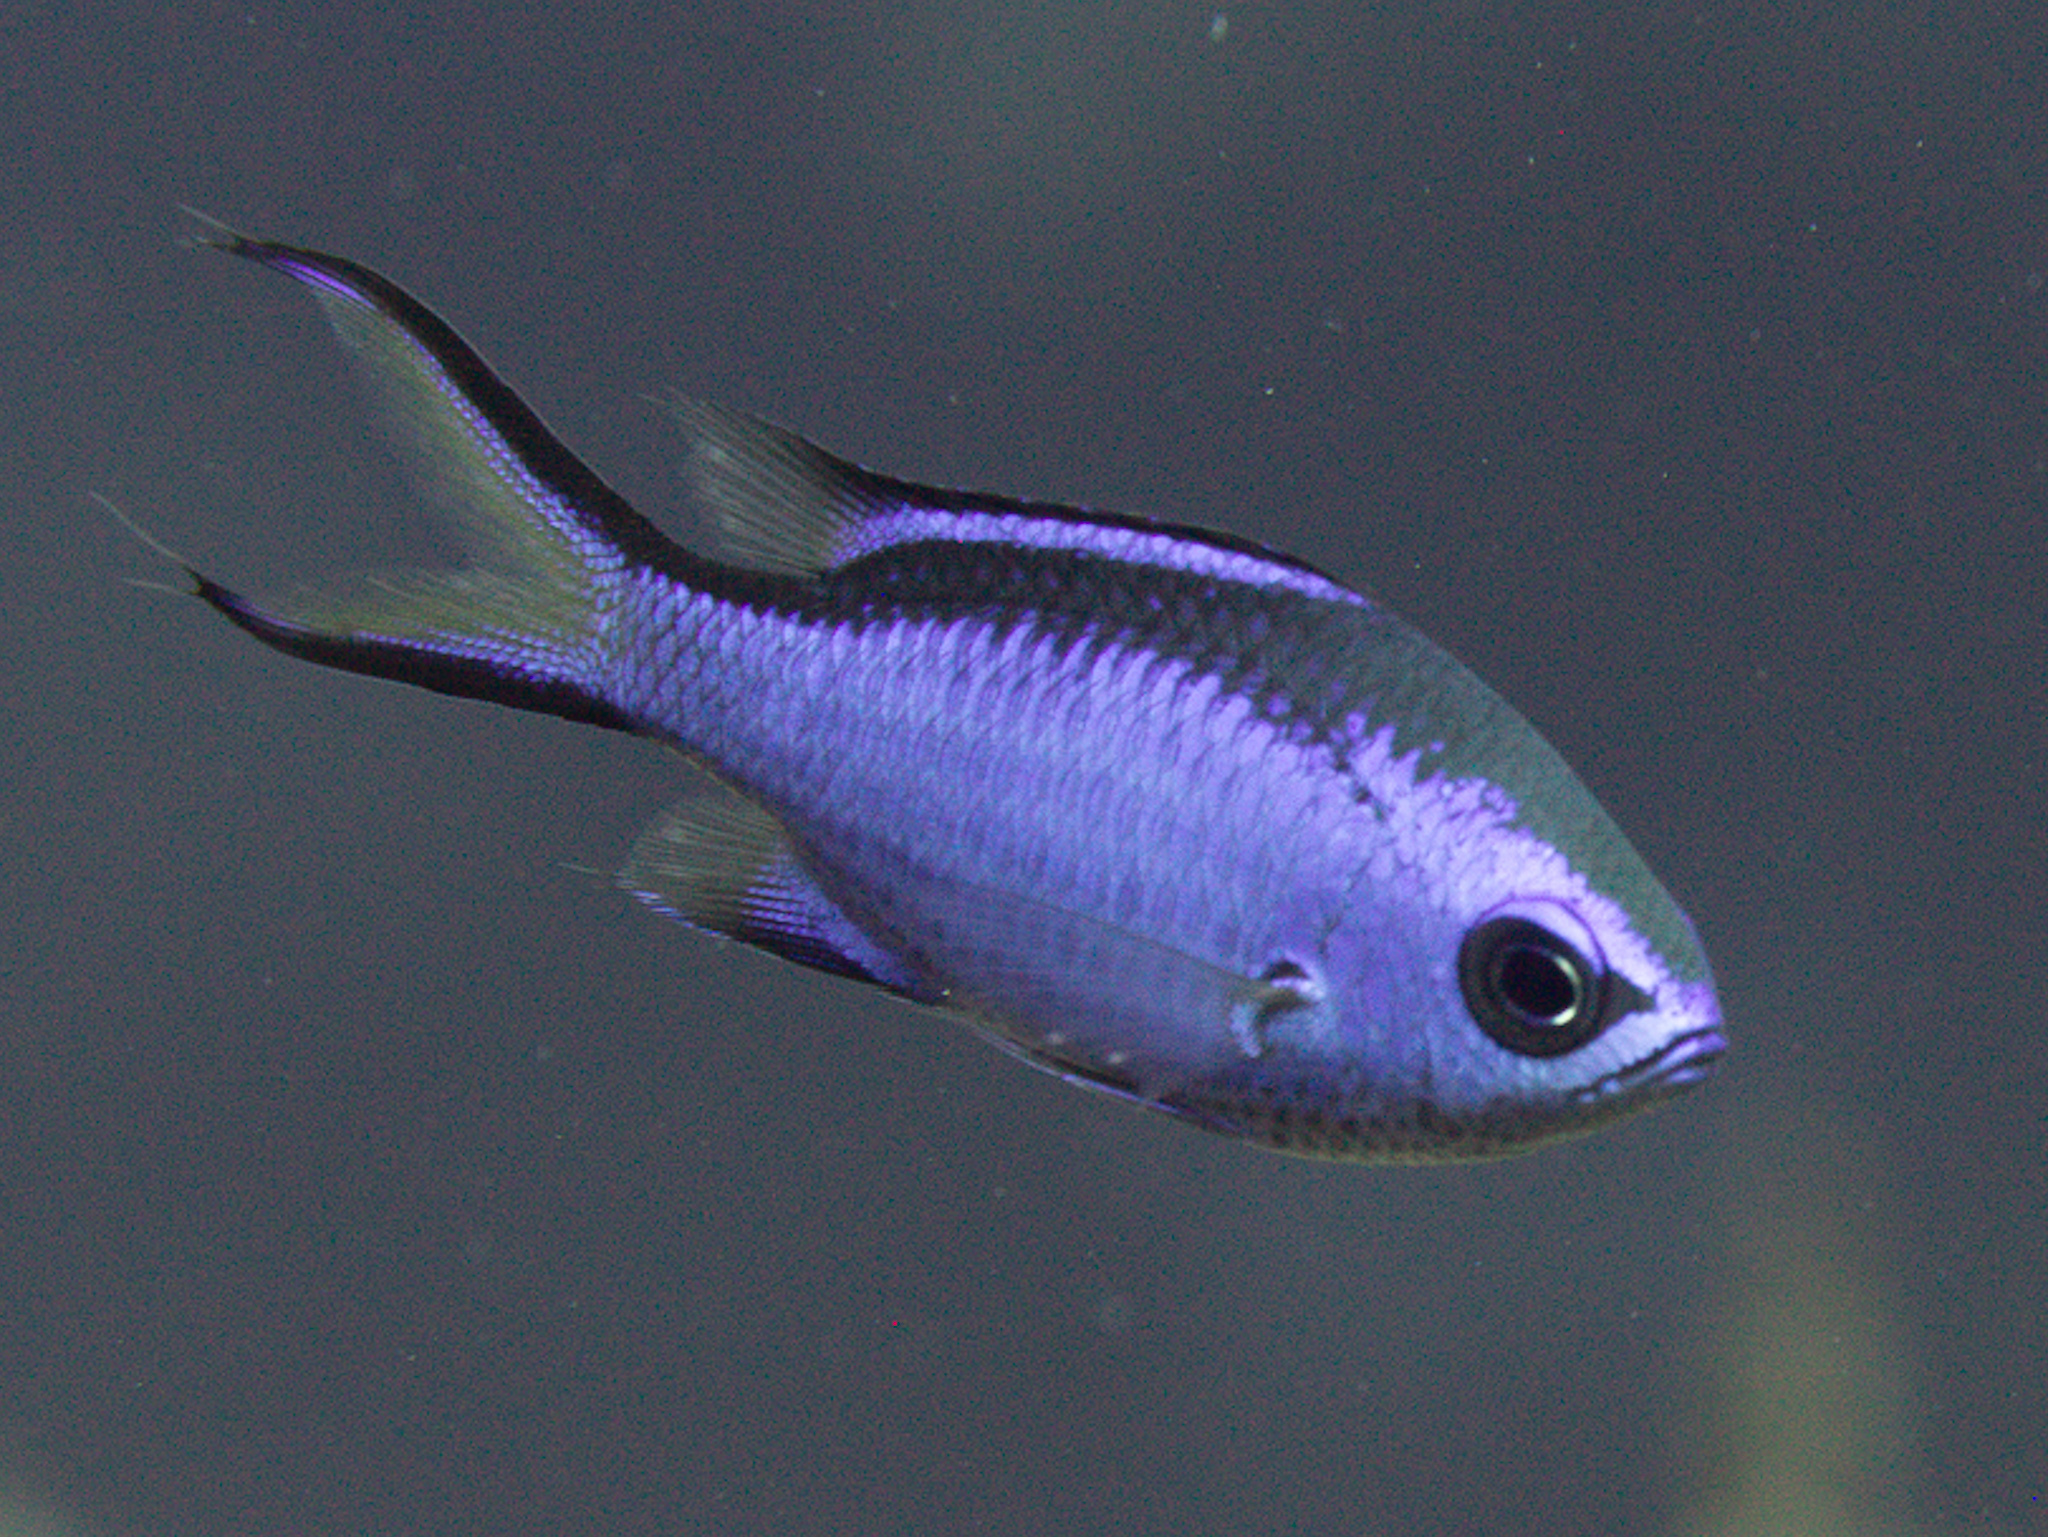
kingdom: Animalia
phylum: Chordata
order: Perciformes
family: Pomacentridae
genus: Chromis
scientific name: Chromis cyanea
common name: Blue chromis
